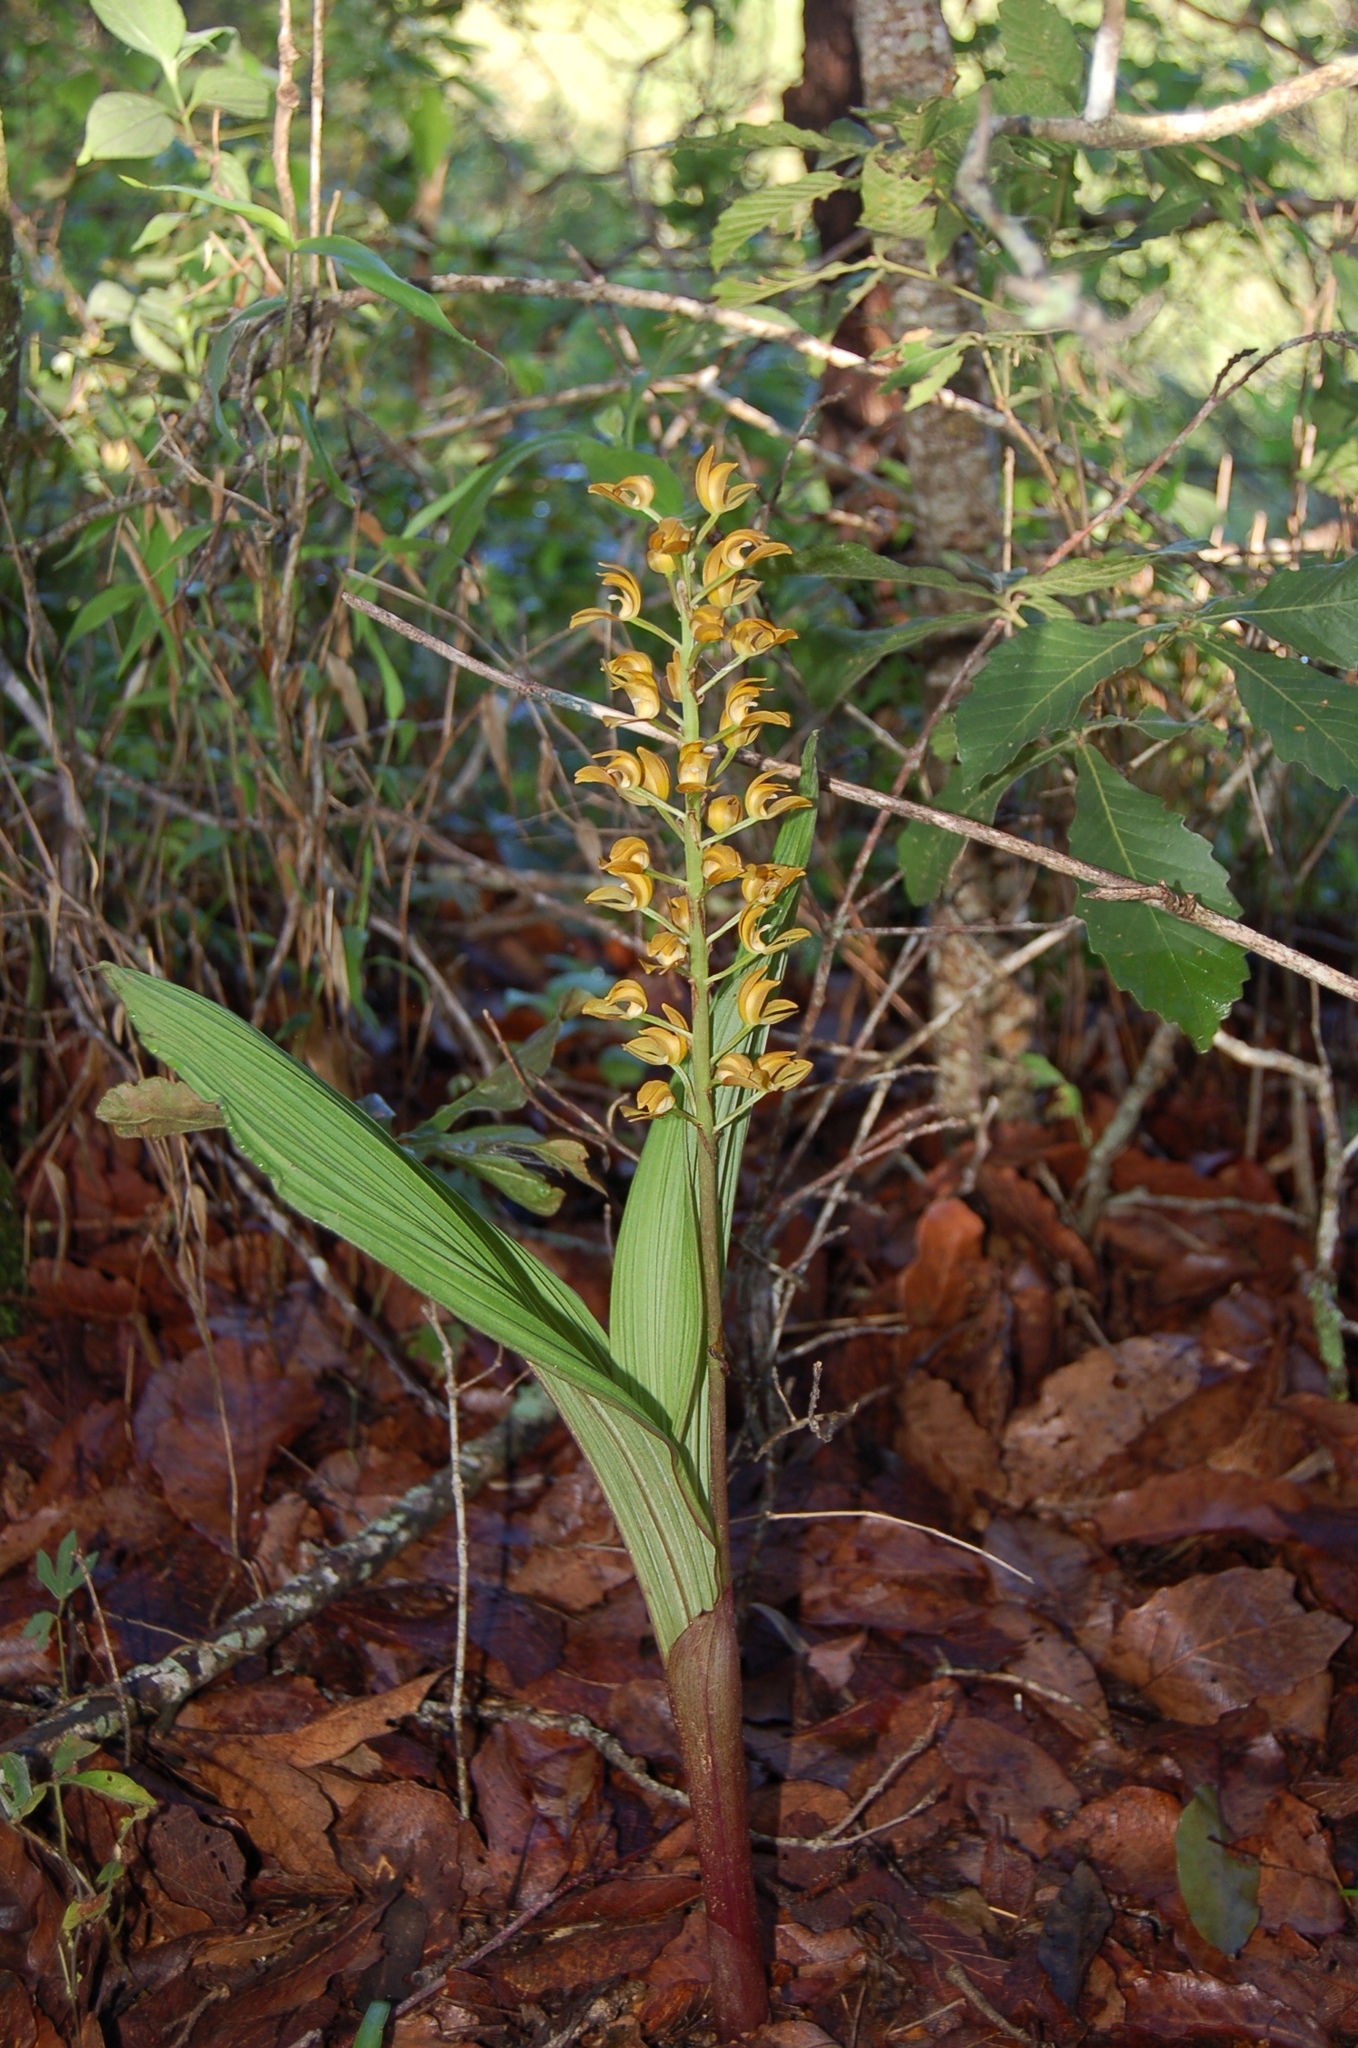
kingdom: Plantae
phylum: Tracheophyta
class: Liliopsida
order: Asparagales
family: Orchidaceae
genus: Govenia
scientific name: Govenia dressleriana
